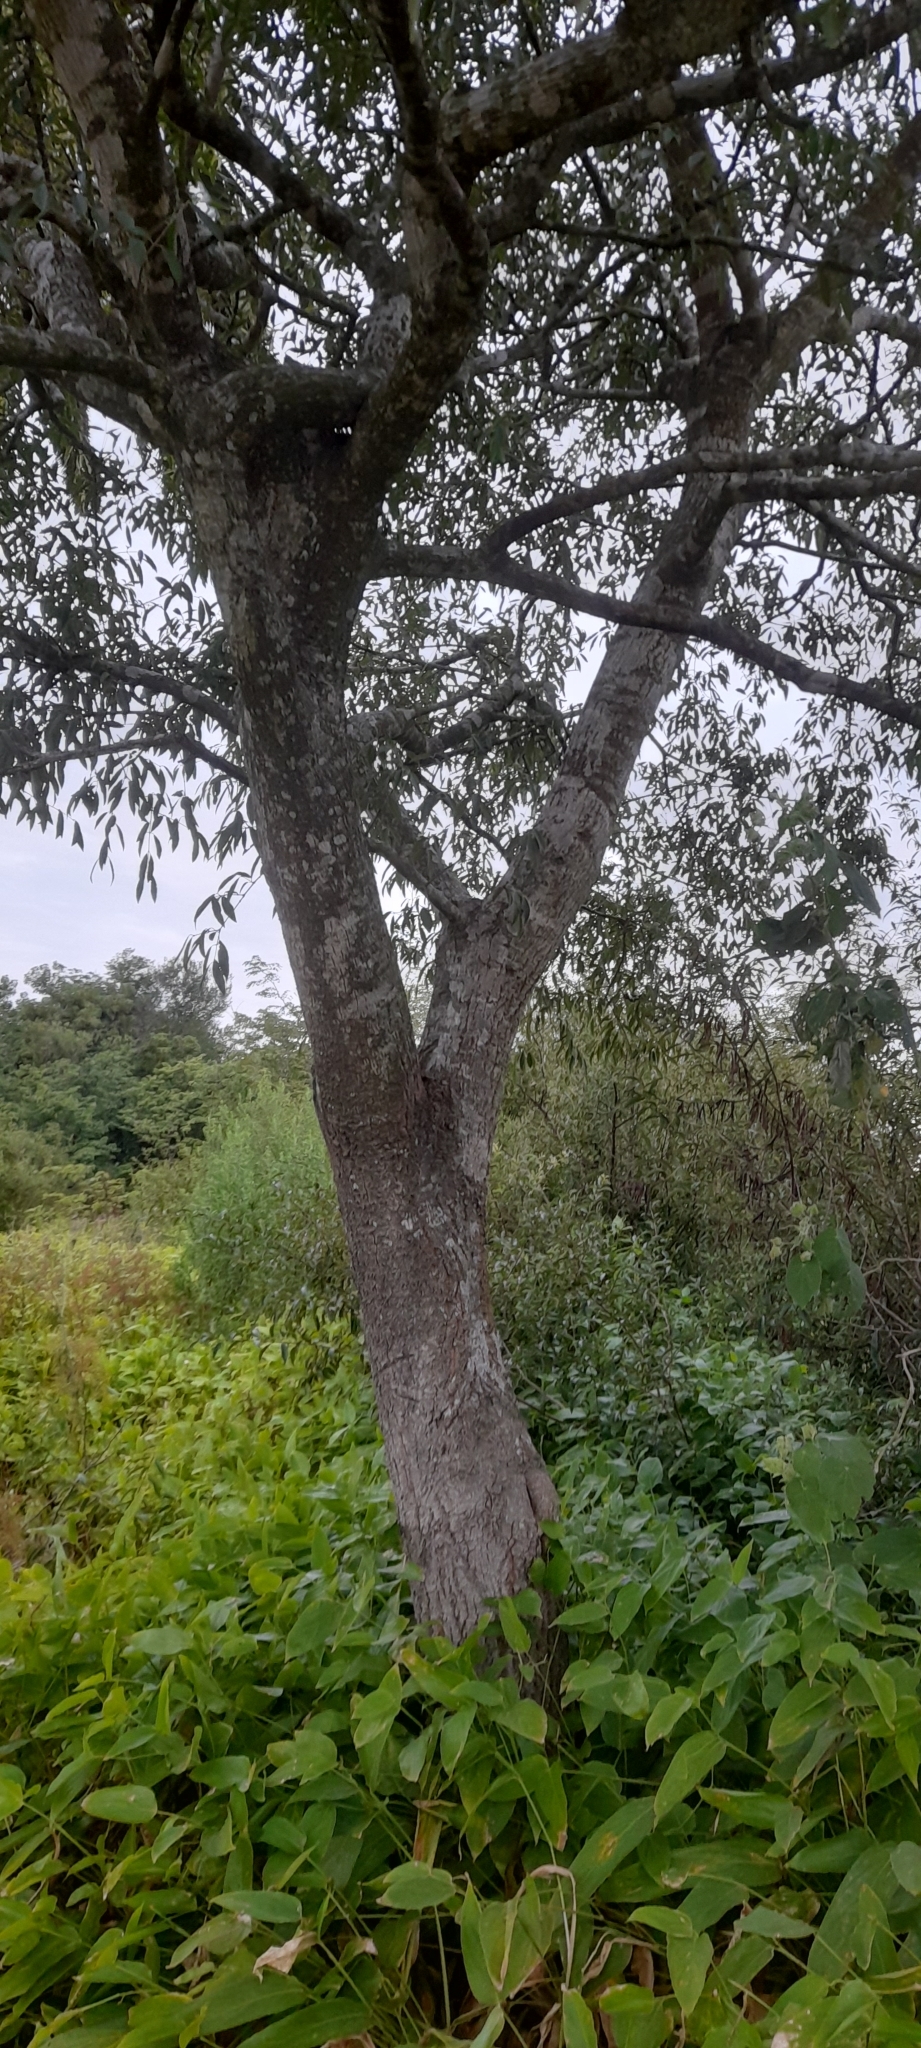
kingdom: Plantae
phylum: Tracheophyta
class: Magnoliopsida
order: Myrtales
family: Myrtaceae
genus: Eugenia
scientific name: Eugenia myrcianthes
